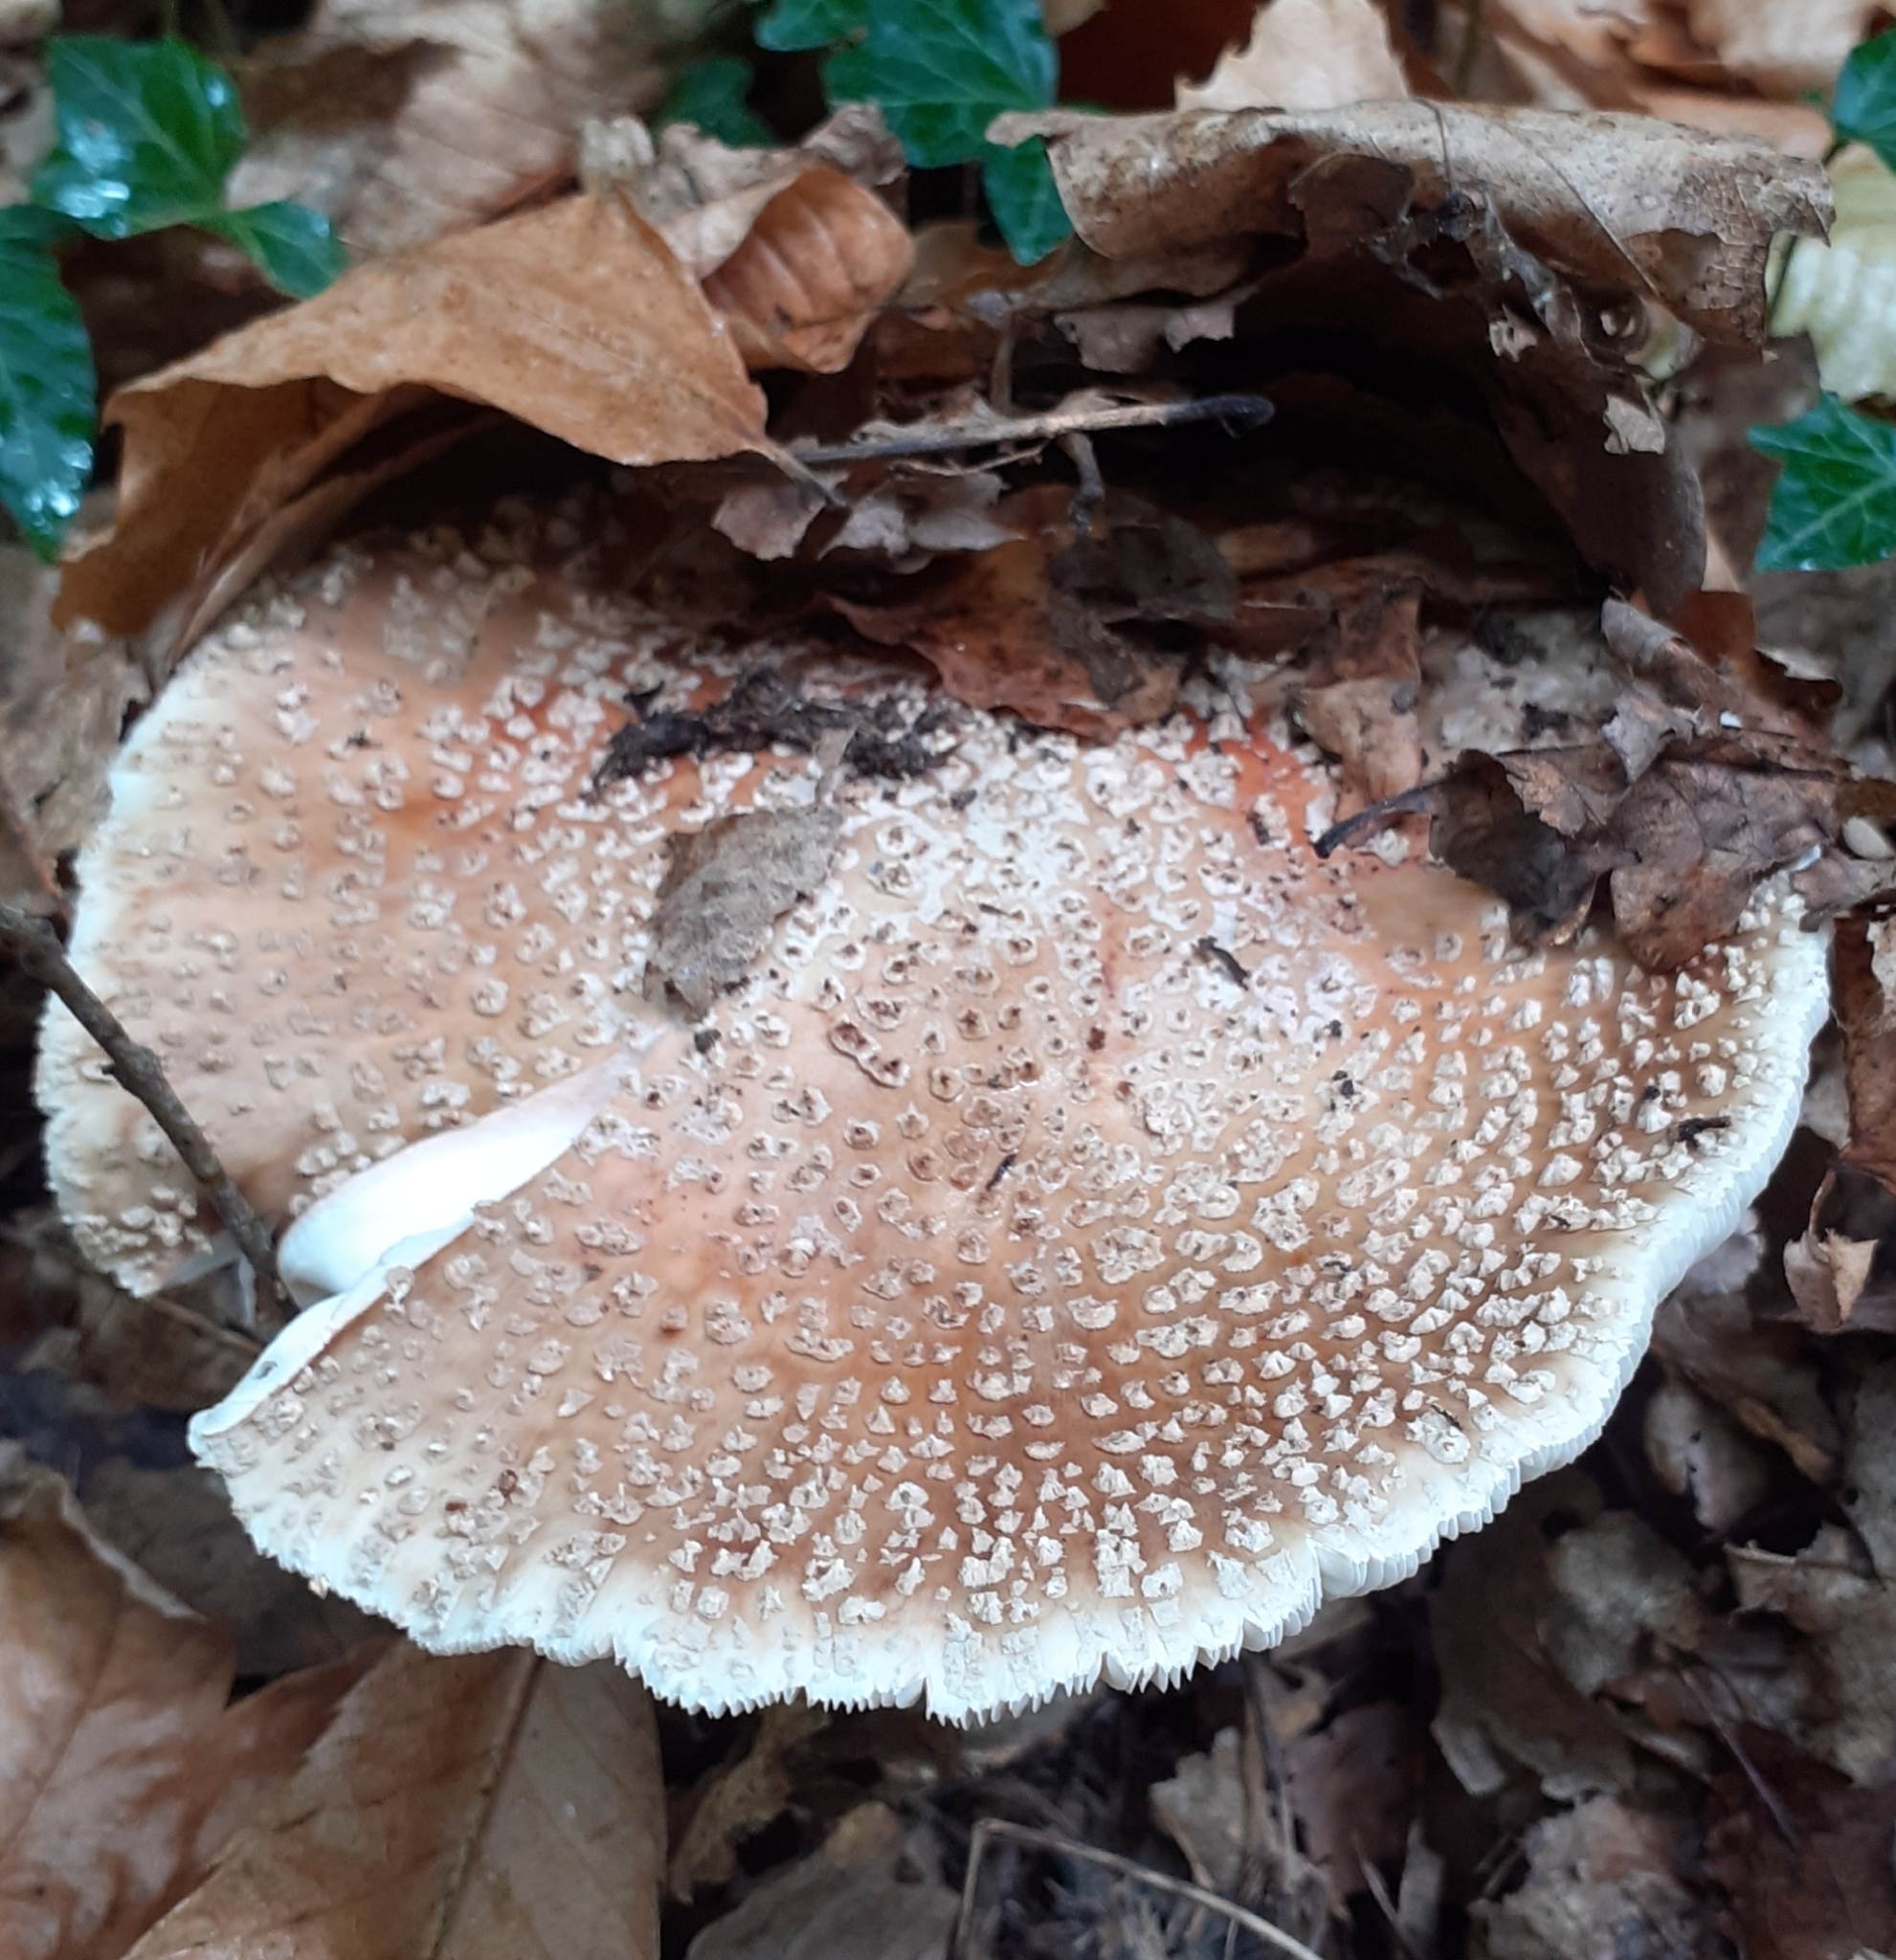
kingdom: Fungi
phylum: Basidiomycota
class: Agaricomycetes
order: Agaricales
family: Amanitaceae
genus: Amanita
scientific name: Amanita rubescens
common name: Blusher
